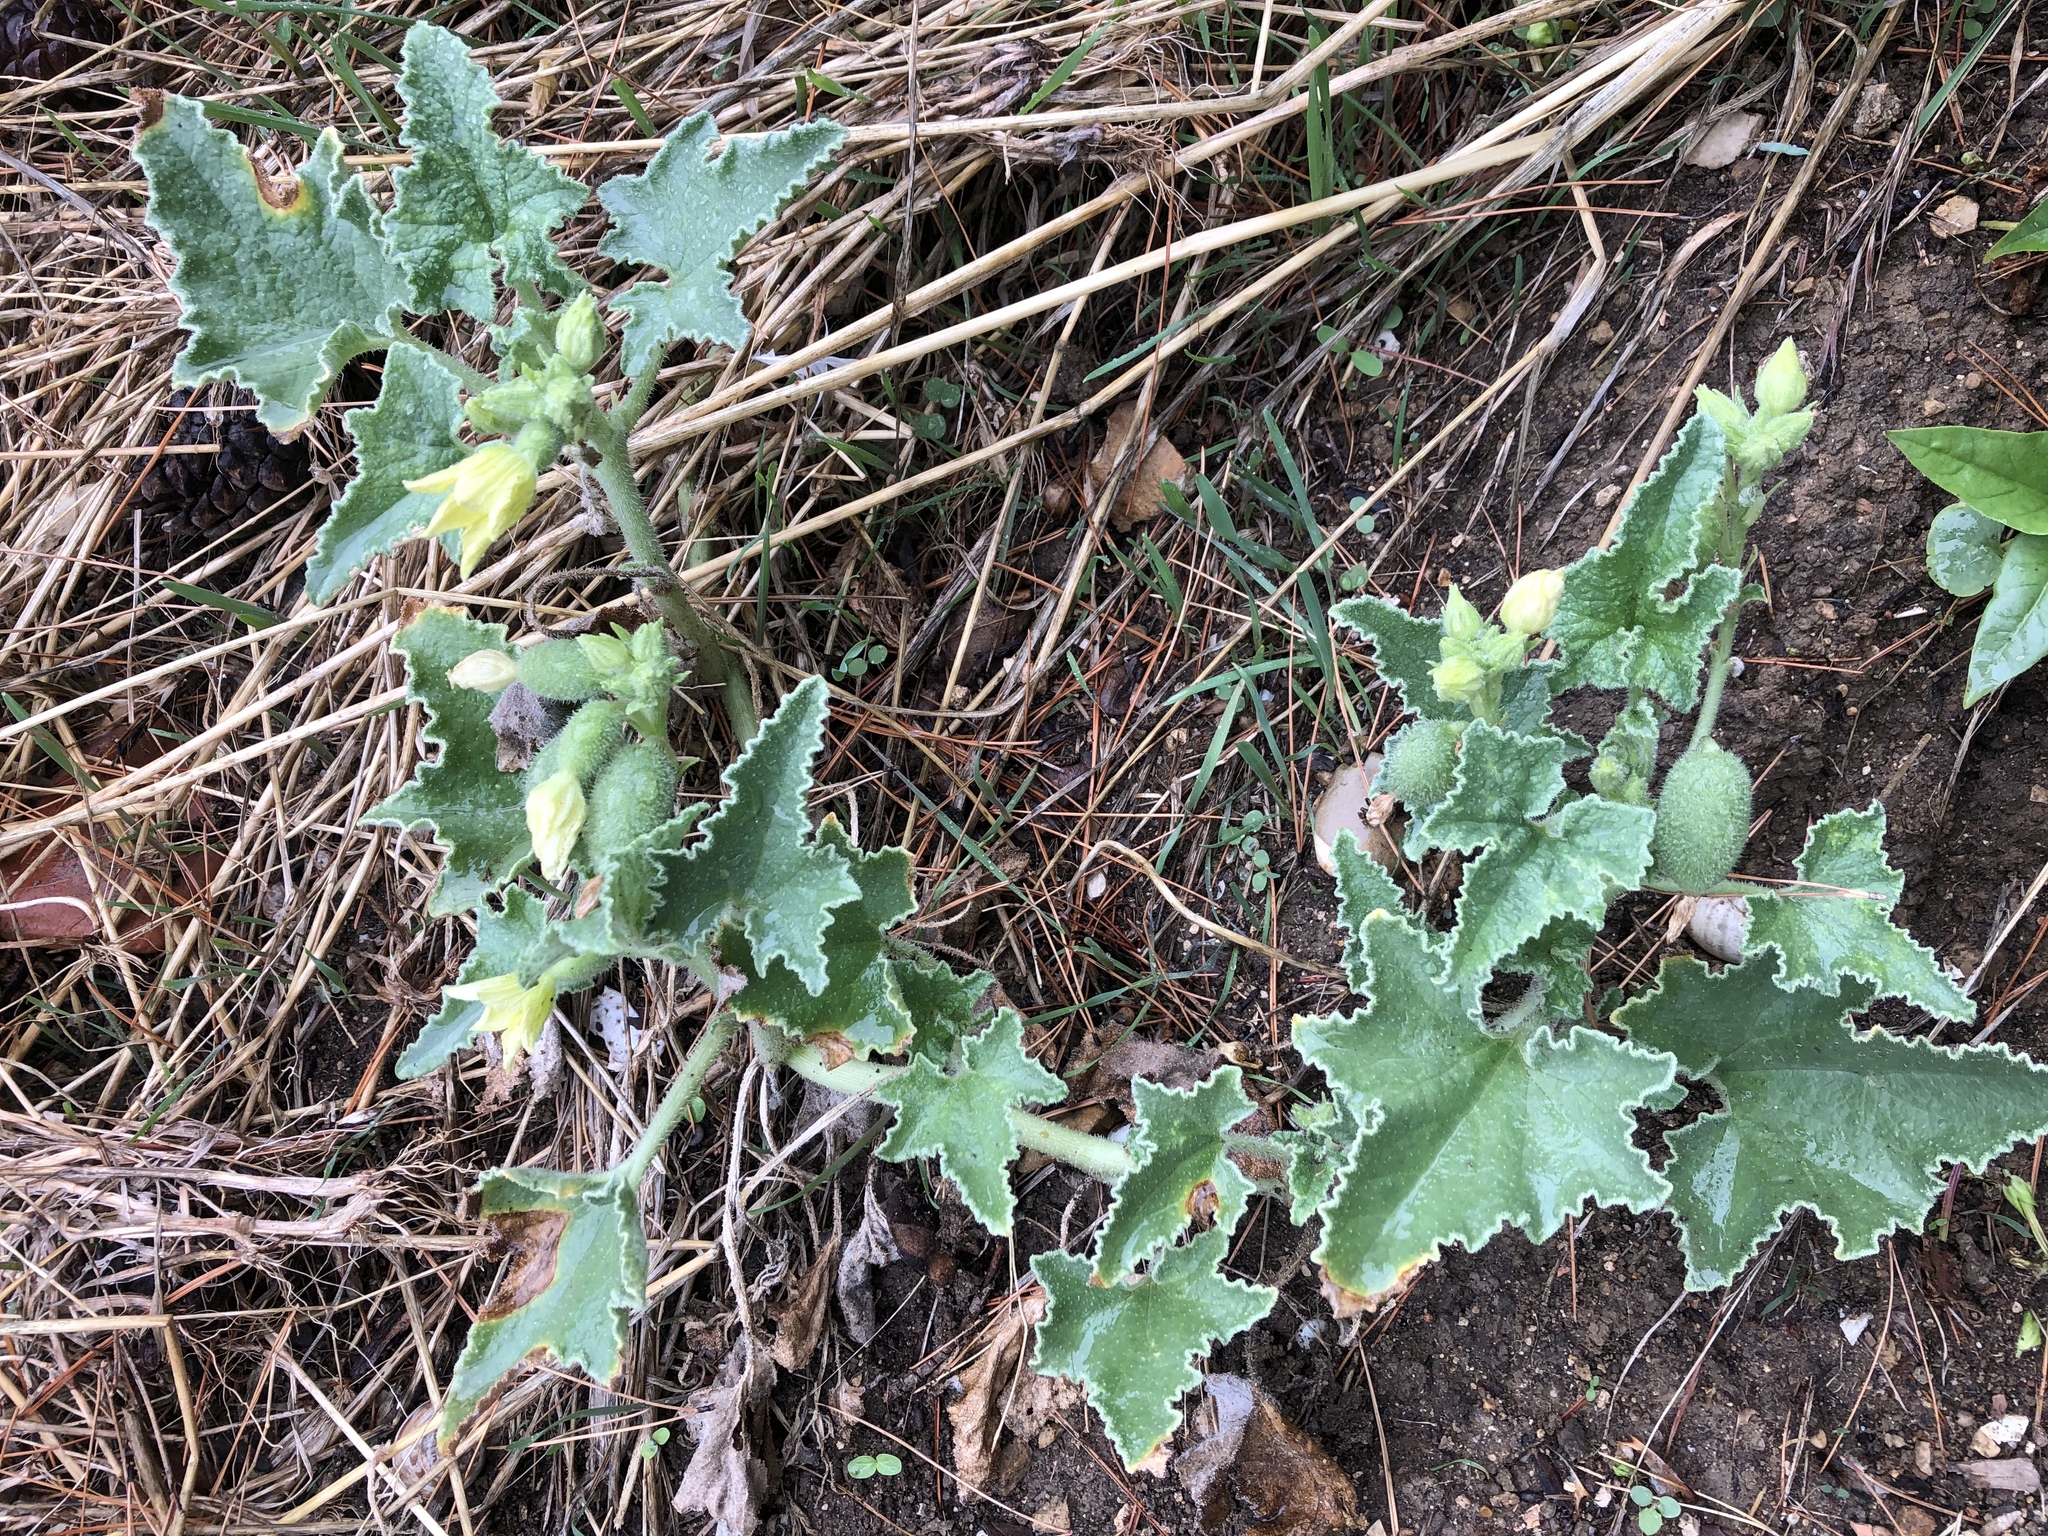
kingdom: Plantae
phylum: Tracheophyta
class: Magnoliopsida
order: Cucurbitales
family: Cucurbitaceae
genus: Ecballium
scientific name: Ecballium elaterium
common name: Squirting cucumber
